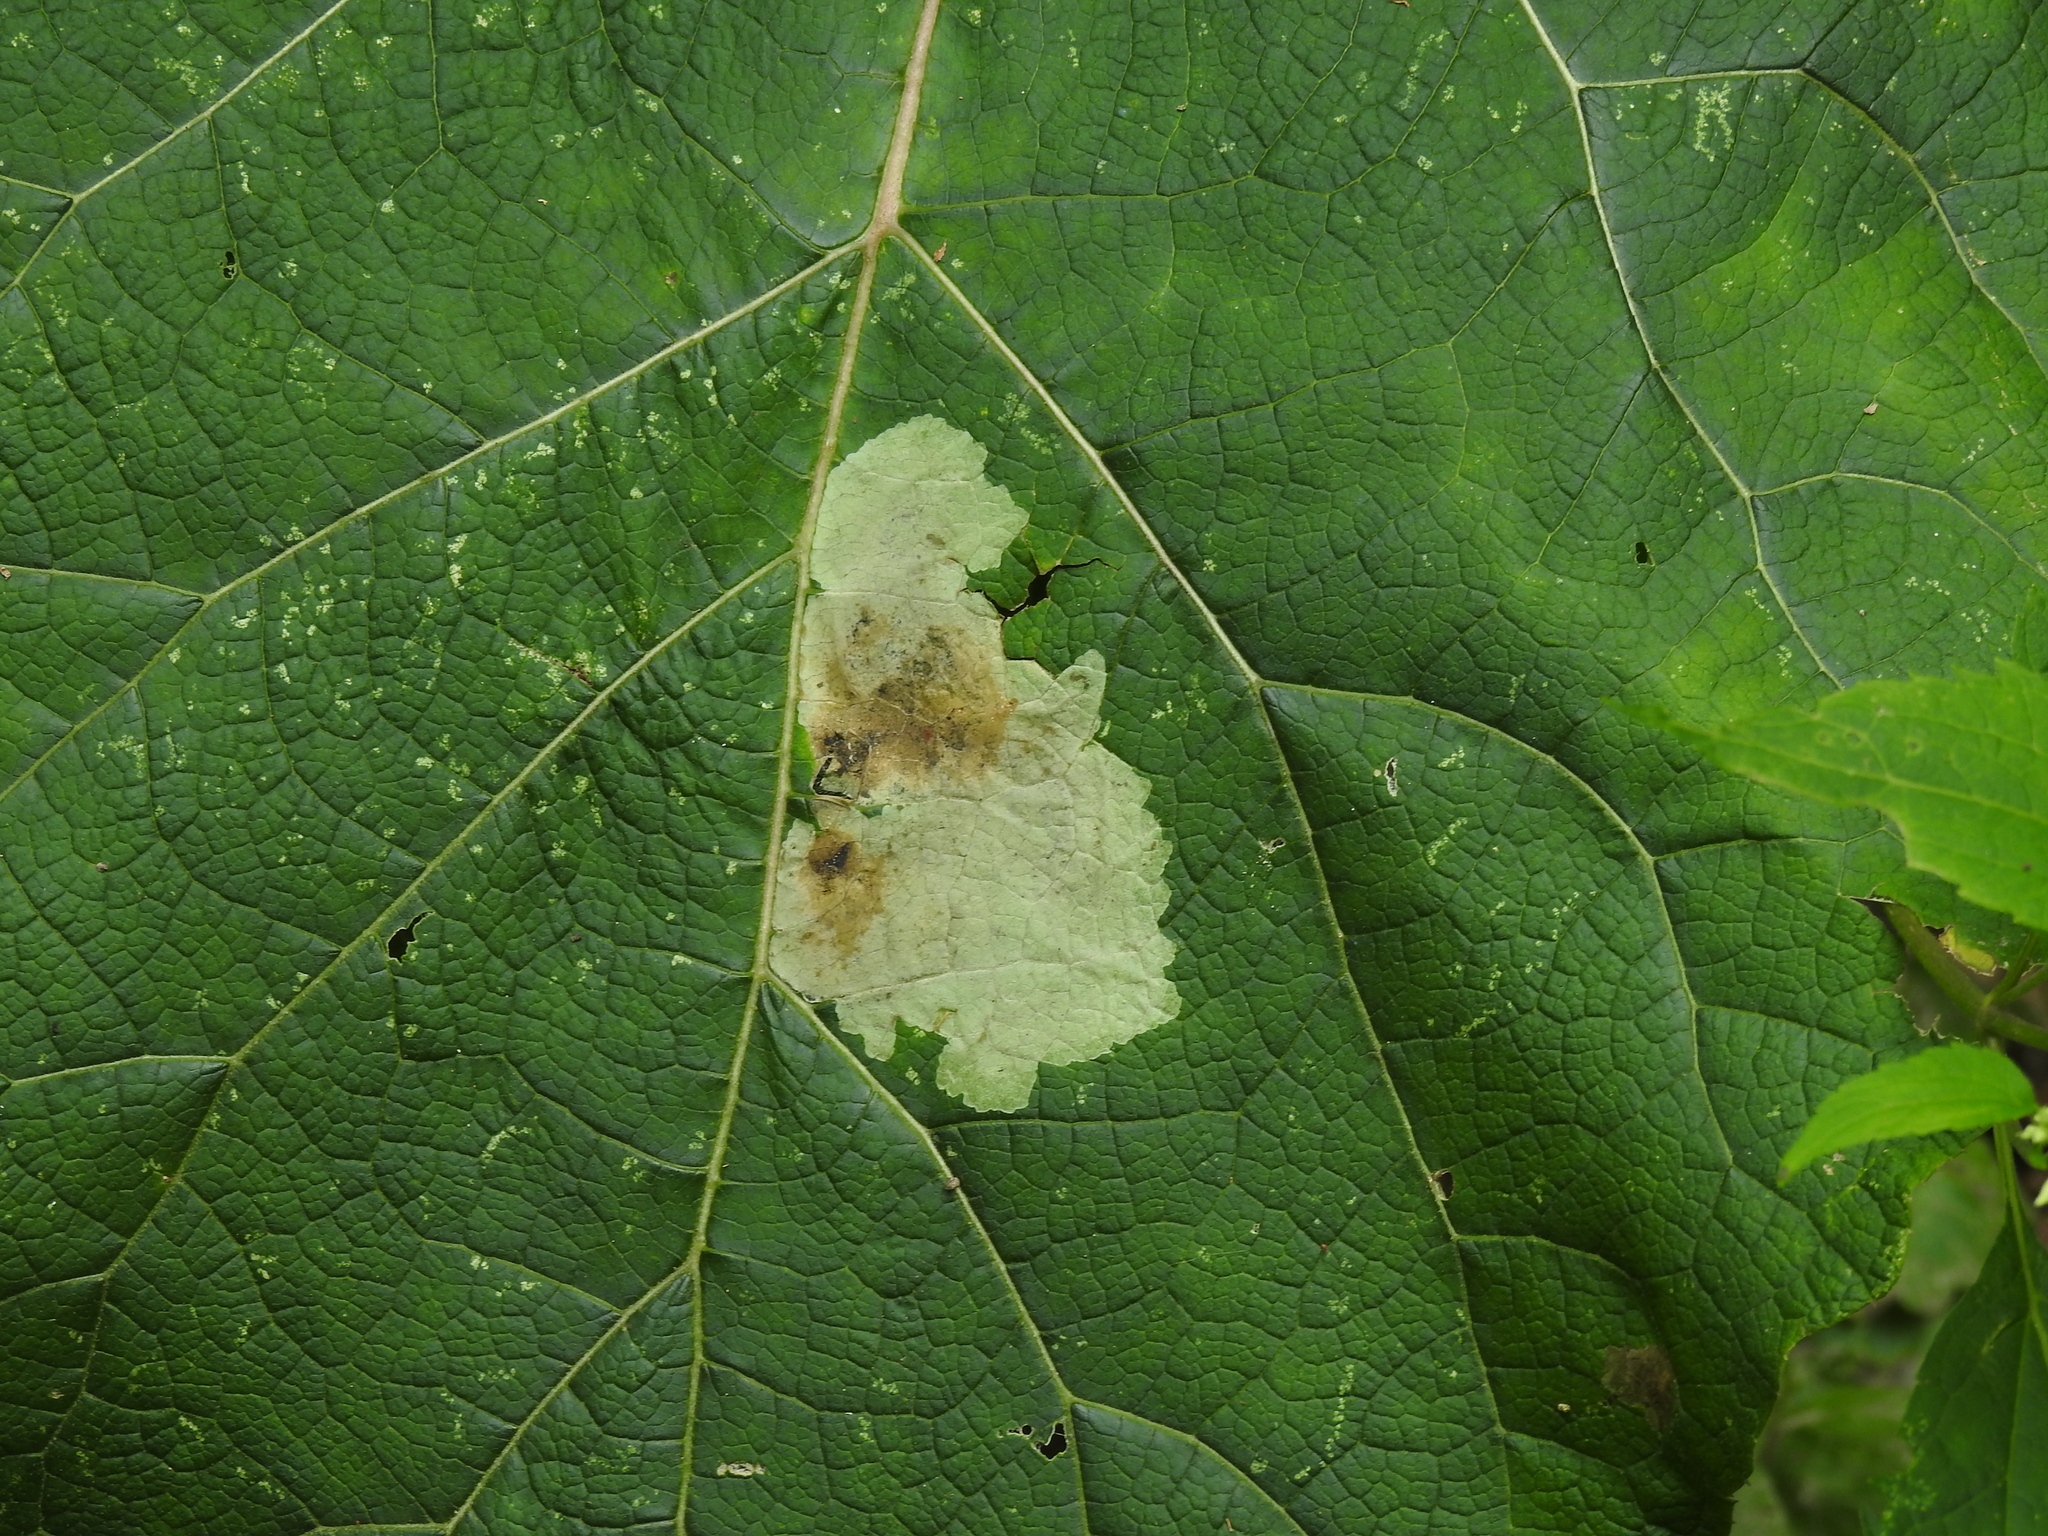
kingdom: Animalia
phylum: Arthropoda
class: Insecta
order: Diptera
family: Agromyzidae
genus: Calycomyza
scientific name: Calycomyza flavinotum
